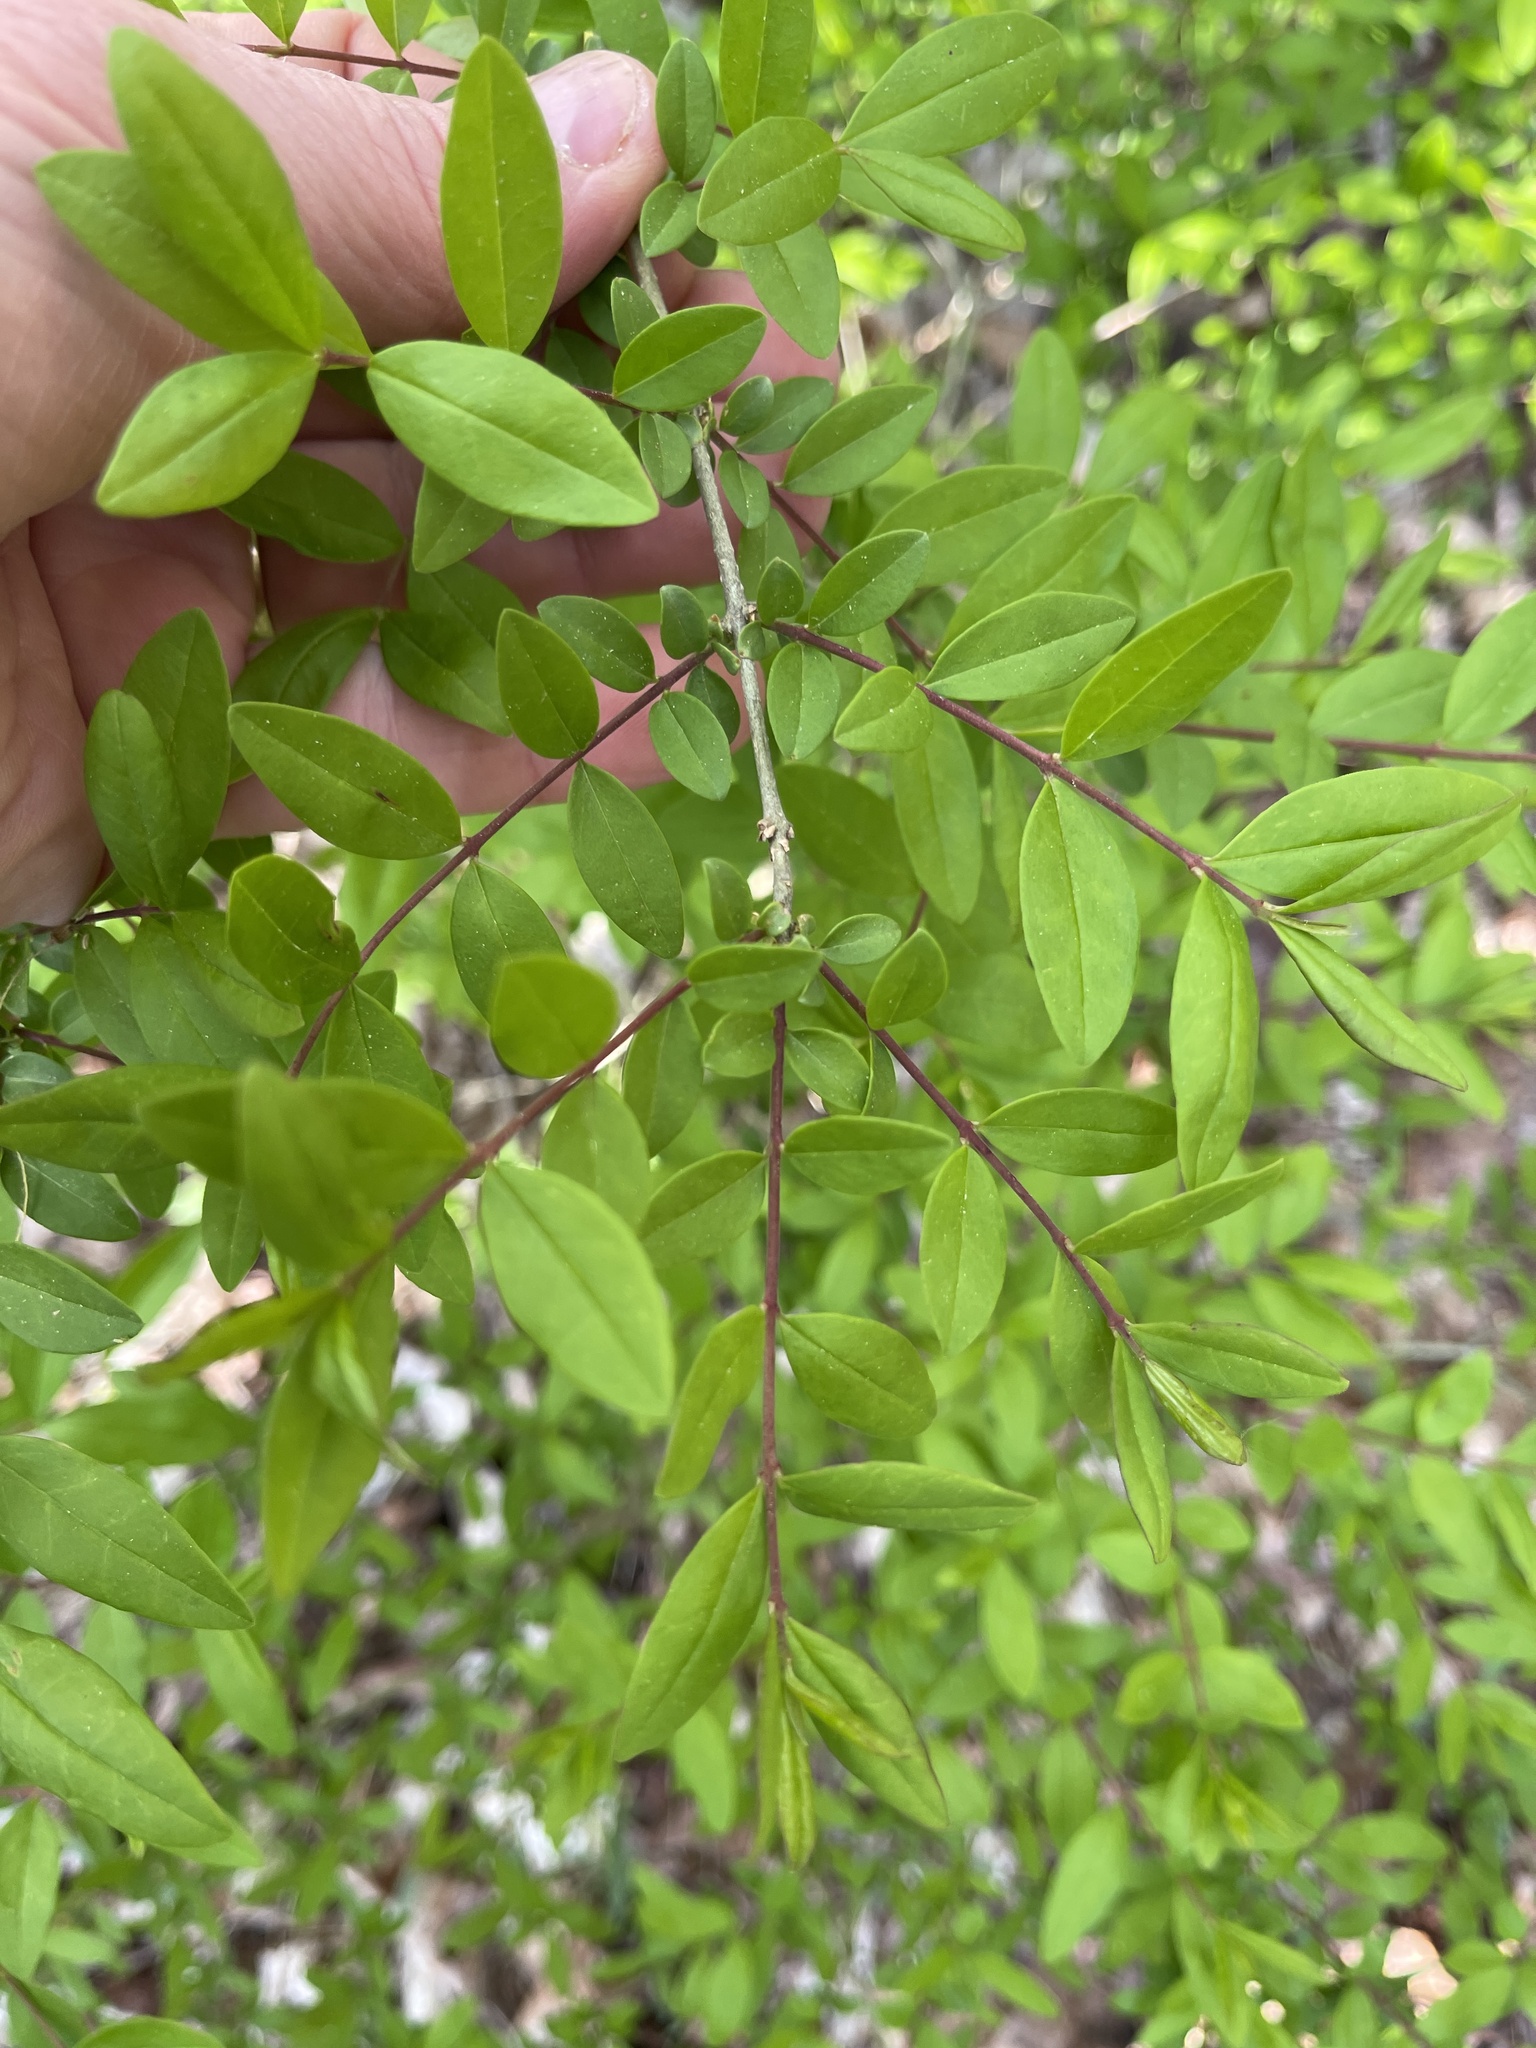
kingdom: Plantae
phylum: Tracheophyta
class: Magnoliopsida
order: Lamiales
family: Oleaceae
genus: Ligustrum
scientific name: Ligustrum obtusifolium
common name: Border privet
